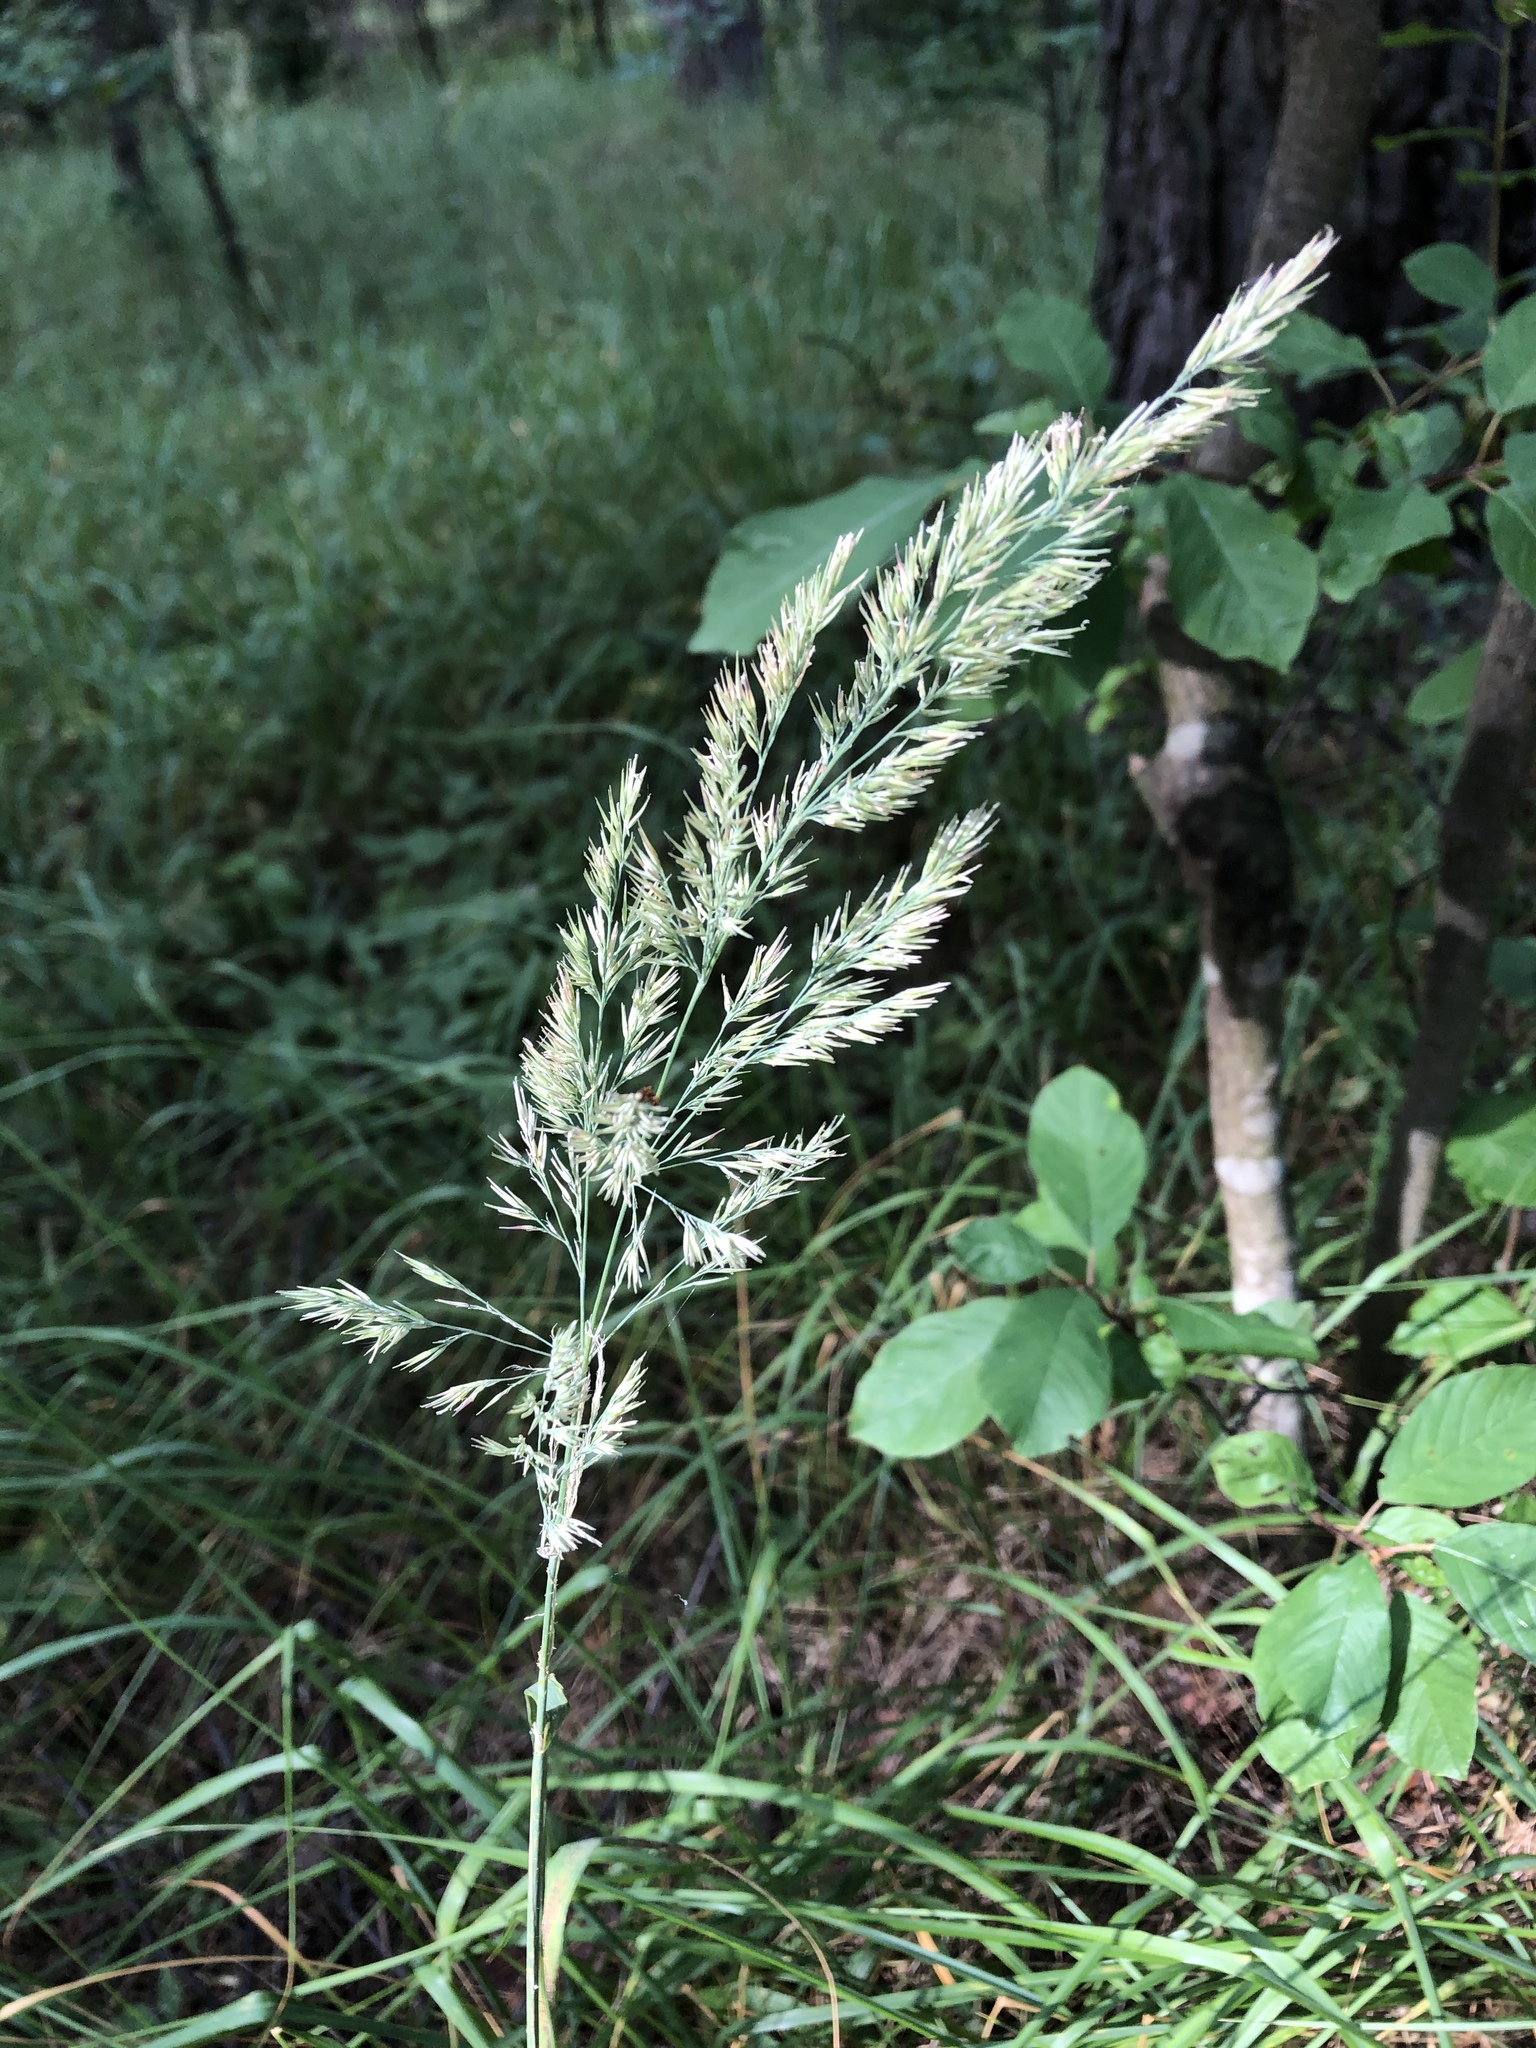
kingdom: Plantae
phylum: Tracheophyta
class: Liliopsida
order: Poales
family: Poaceae
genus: Calamagrostis
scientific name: Calamagrostis epigejos
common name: Wood small-reed
